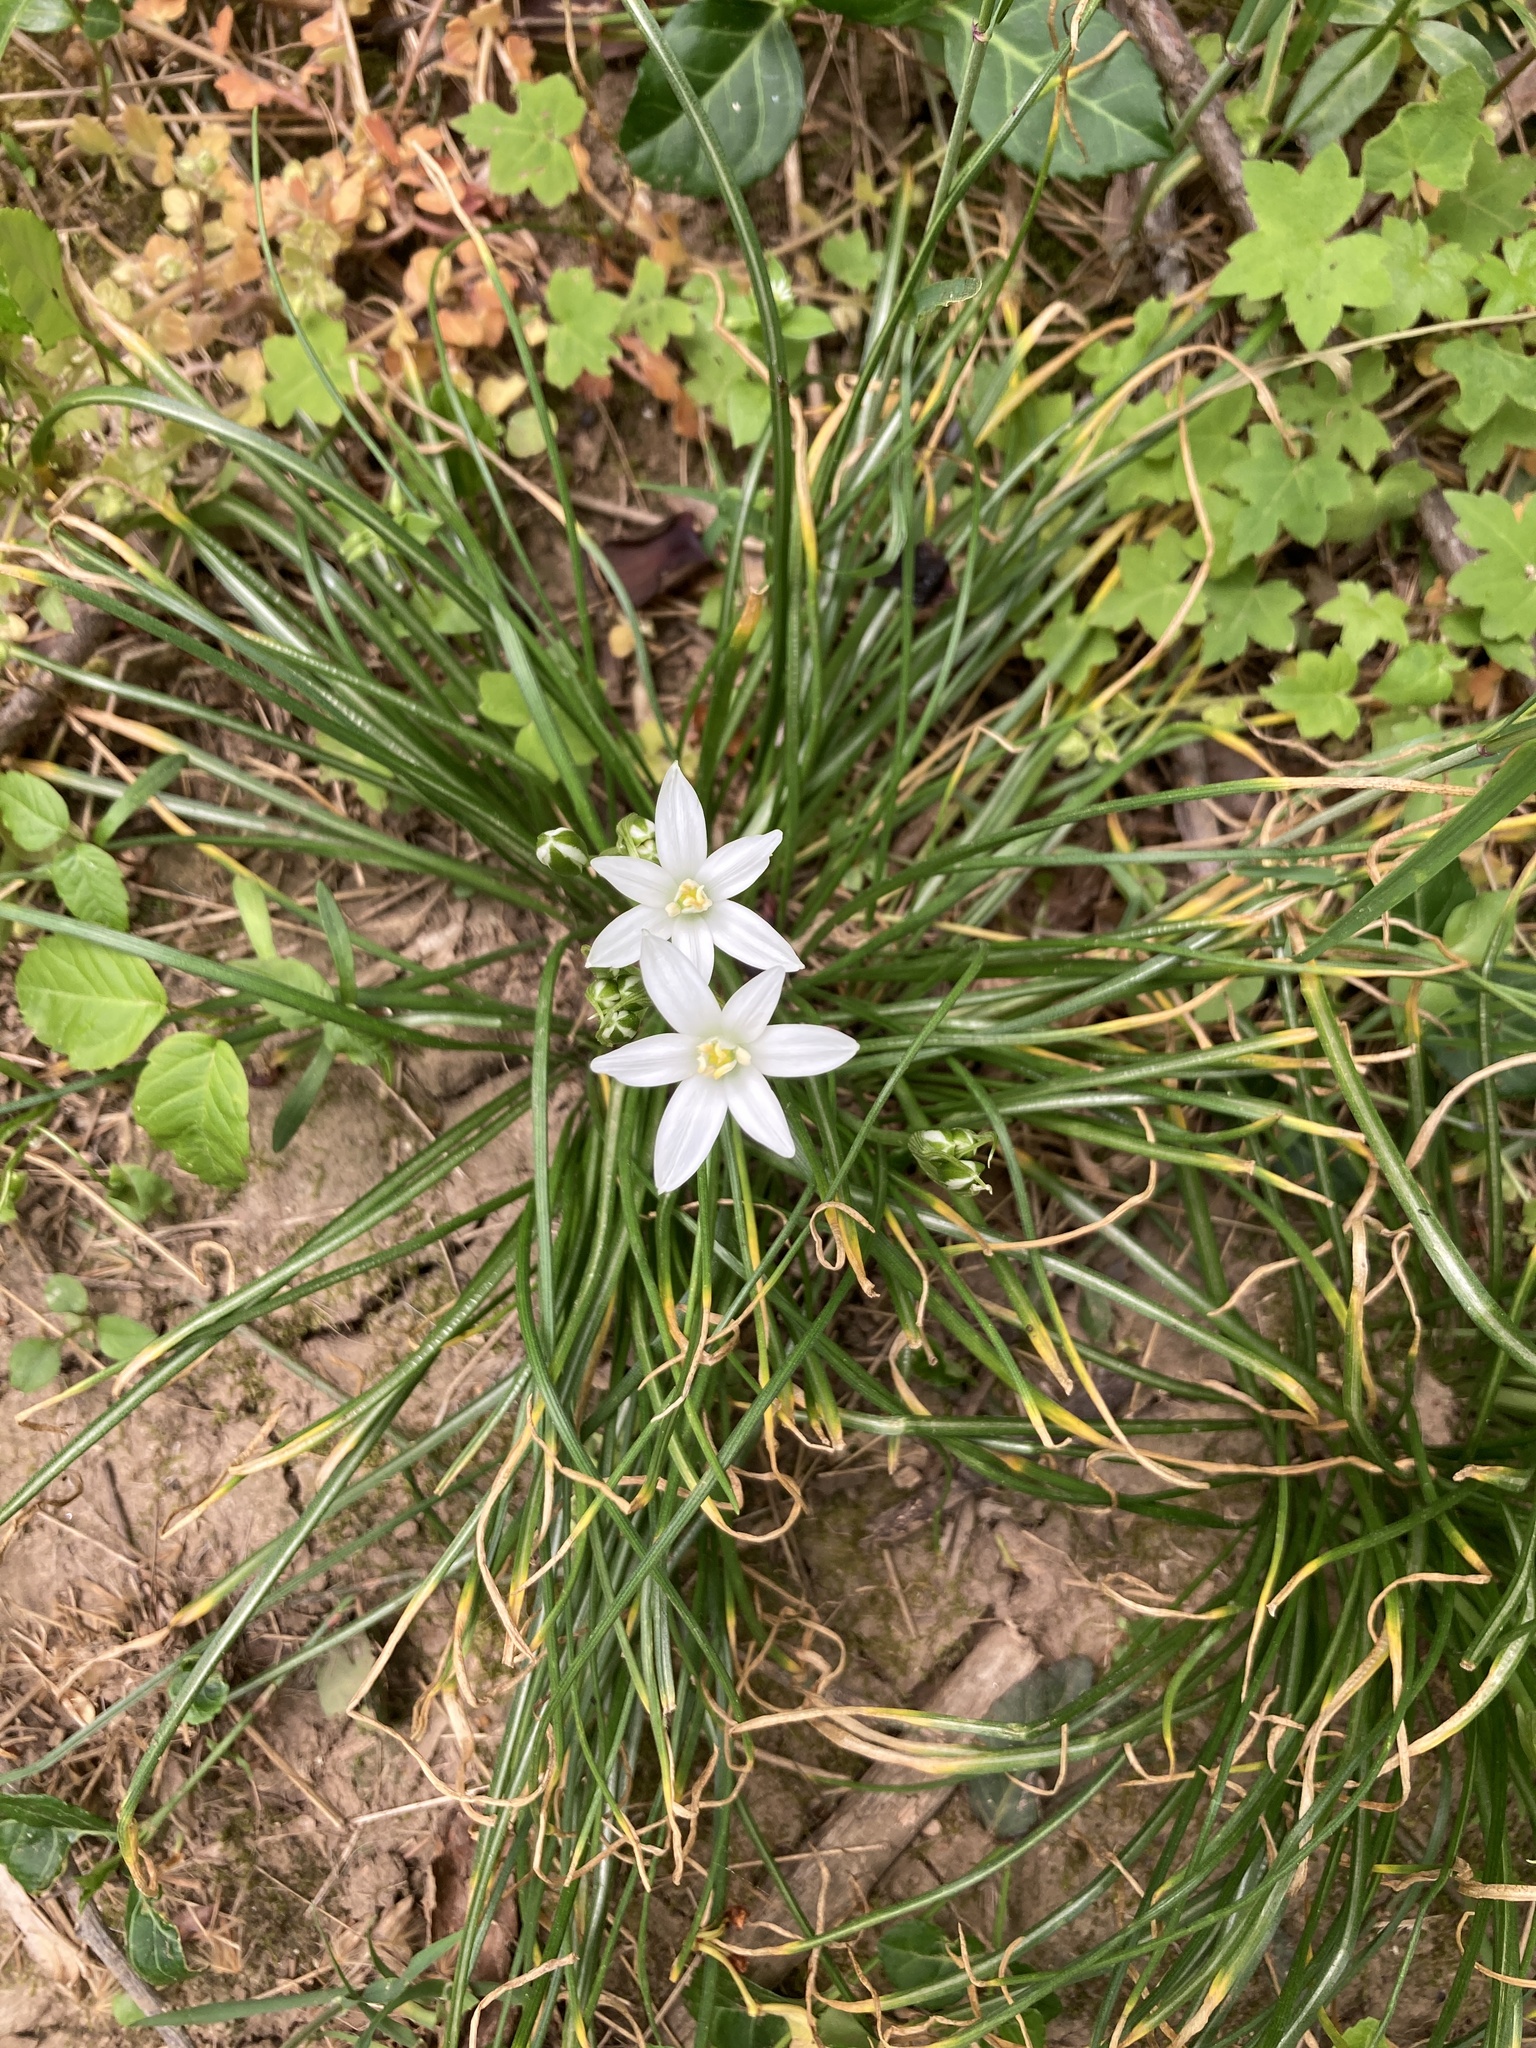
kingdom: Plantae
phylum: Tracheophyta
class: Liliopsida
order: Asparagales
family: Asparagaceae
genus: Ornithogalum
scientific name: Ornithogalum umbellatum
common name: Garden star-of-bethlehem
